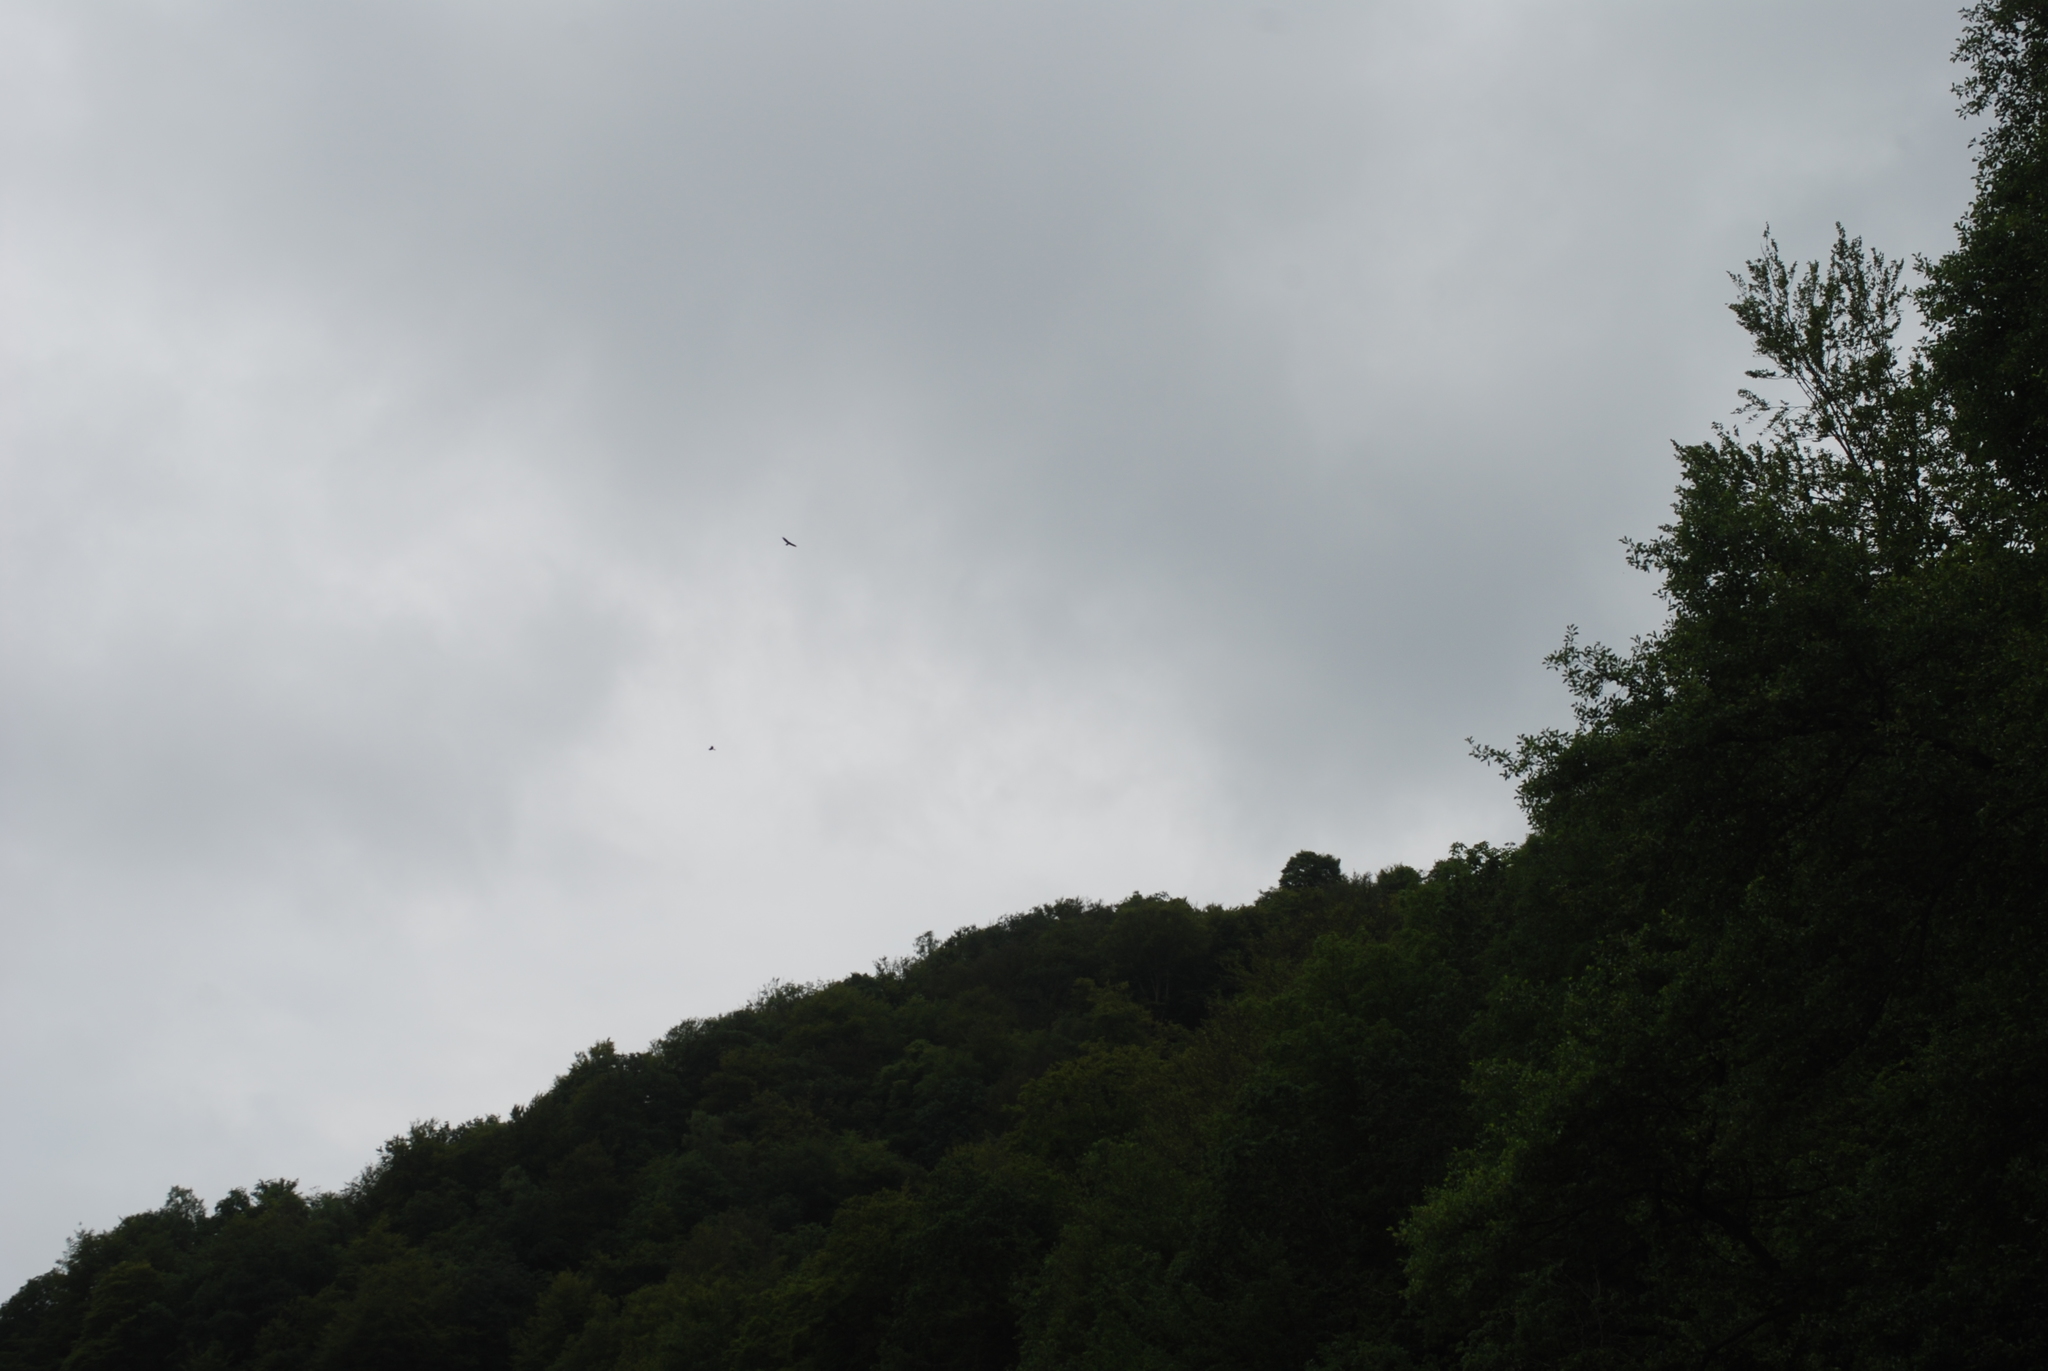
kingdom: Animalia
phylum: Chordata
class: Aves
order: Accipitriformes
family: Accipitridae
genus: Buteo
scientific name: Buteo buteo
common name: Common buzzard
